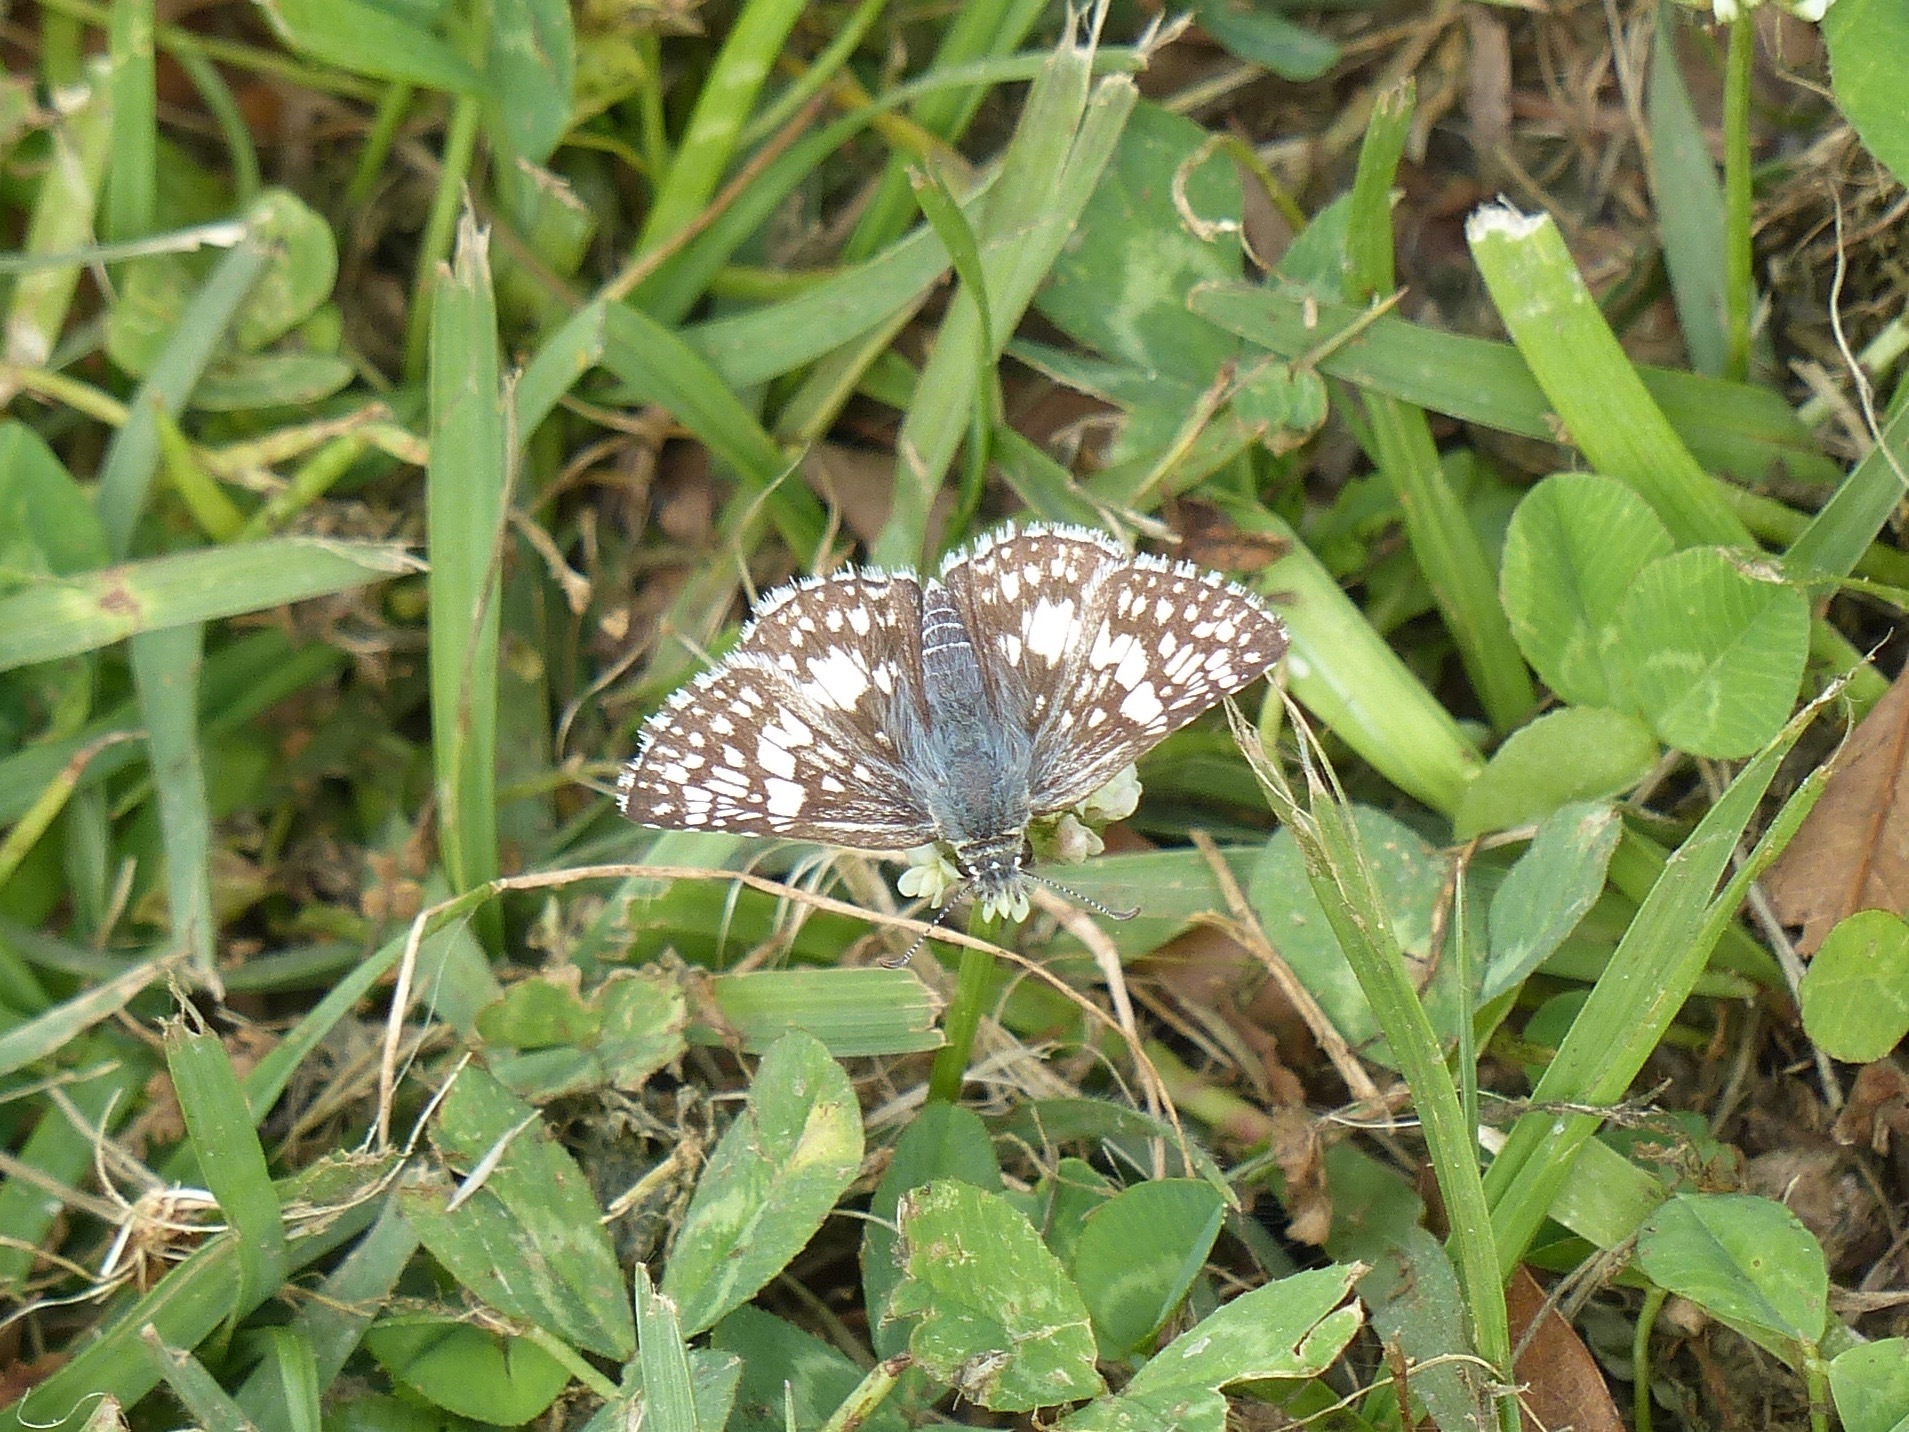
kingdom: Animalia
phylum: Arthropoda
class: Insecta
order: Lepidoptera
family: Hesperiidae
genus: Burnsius
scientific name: Burnsius
